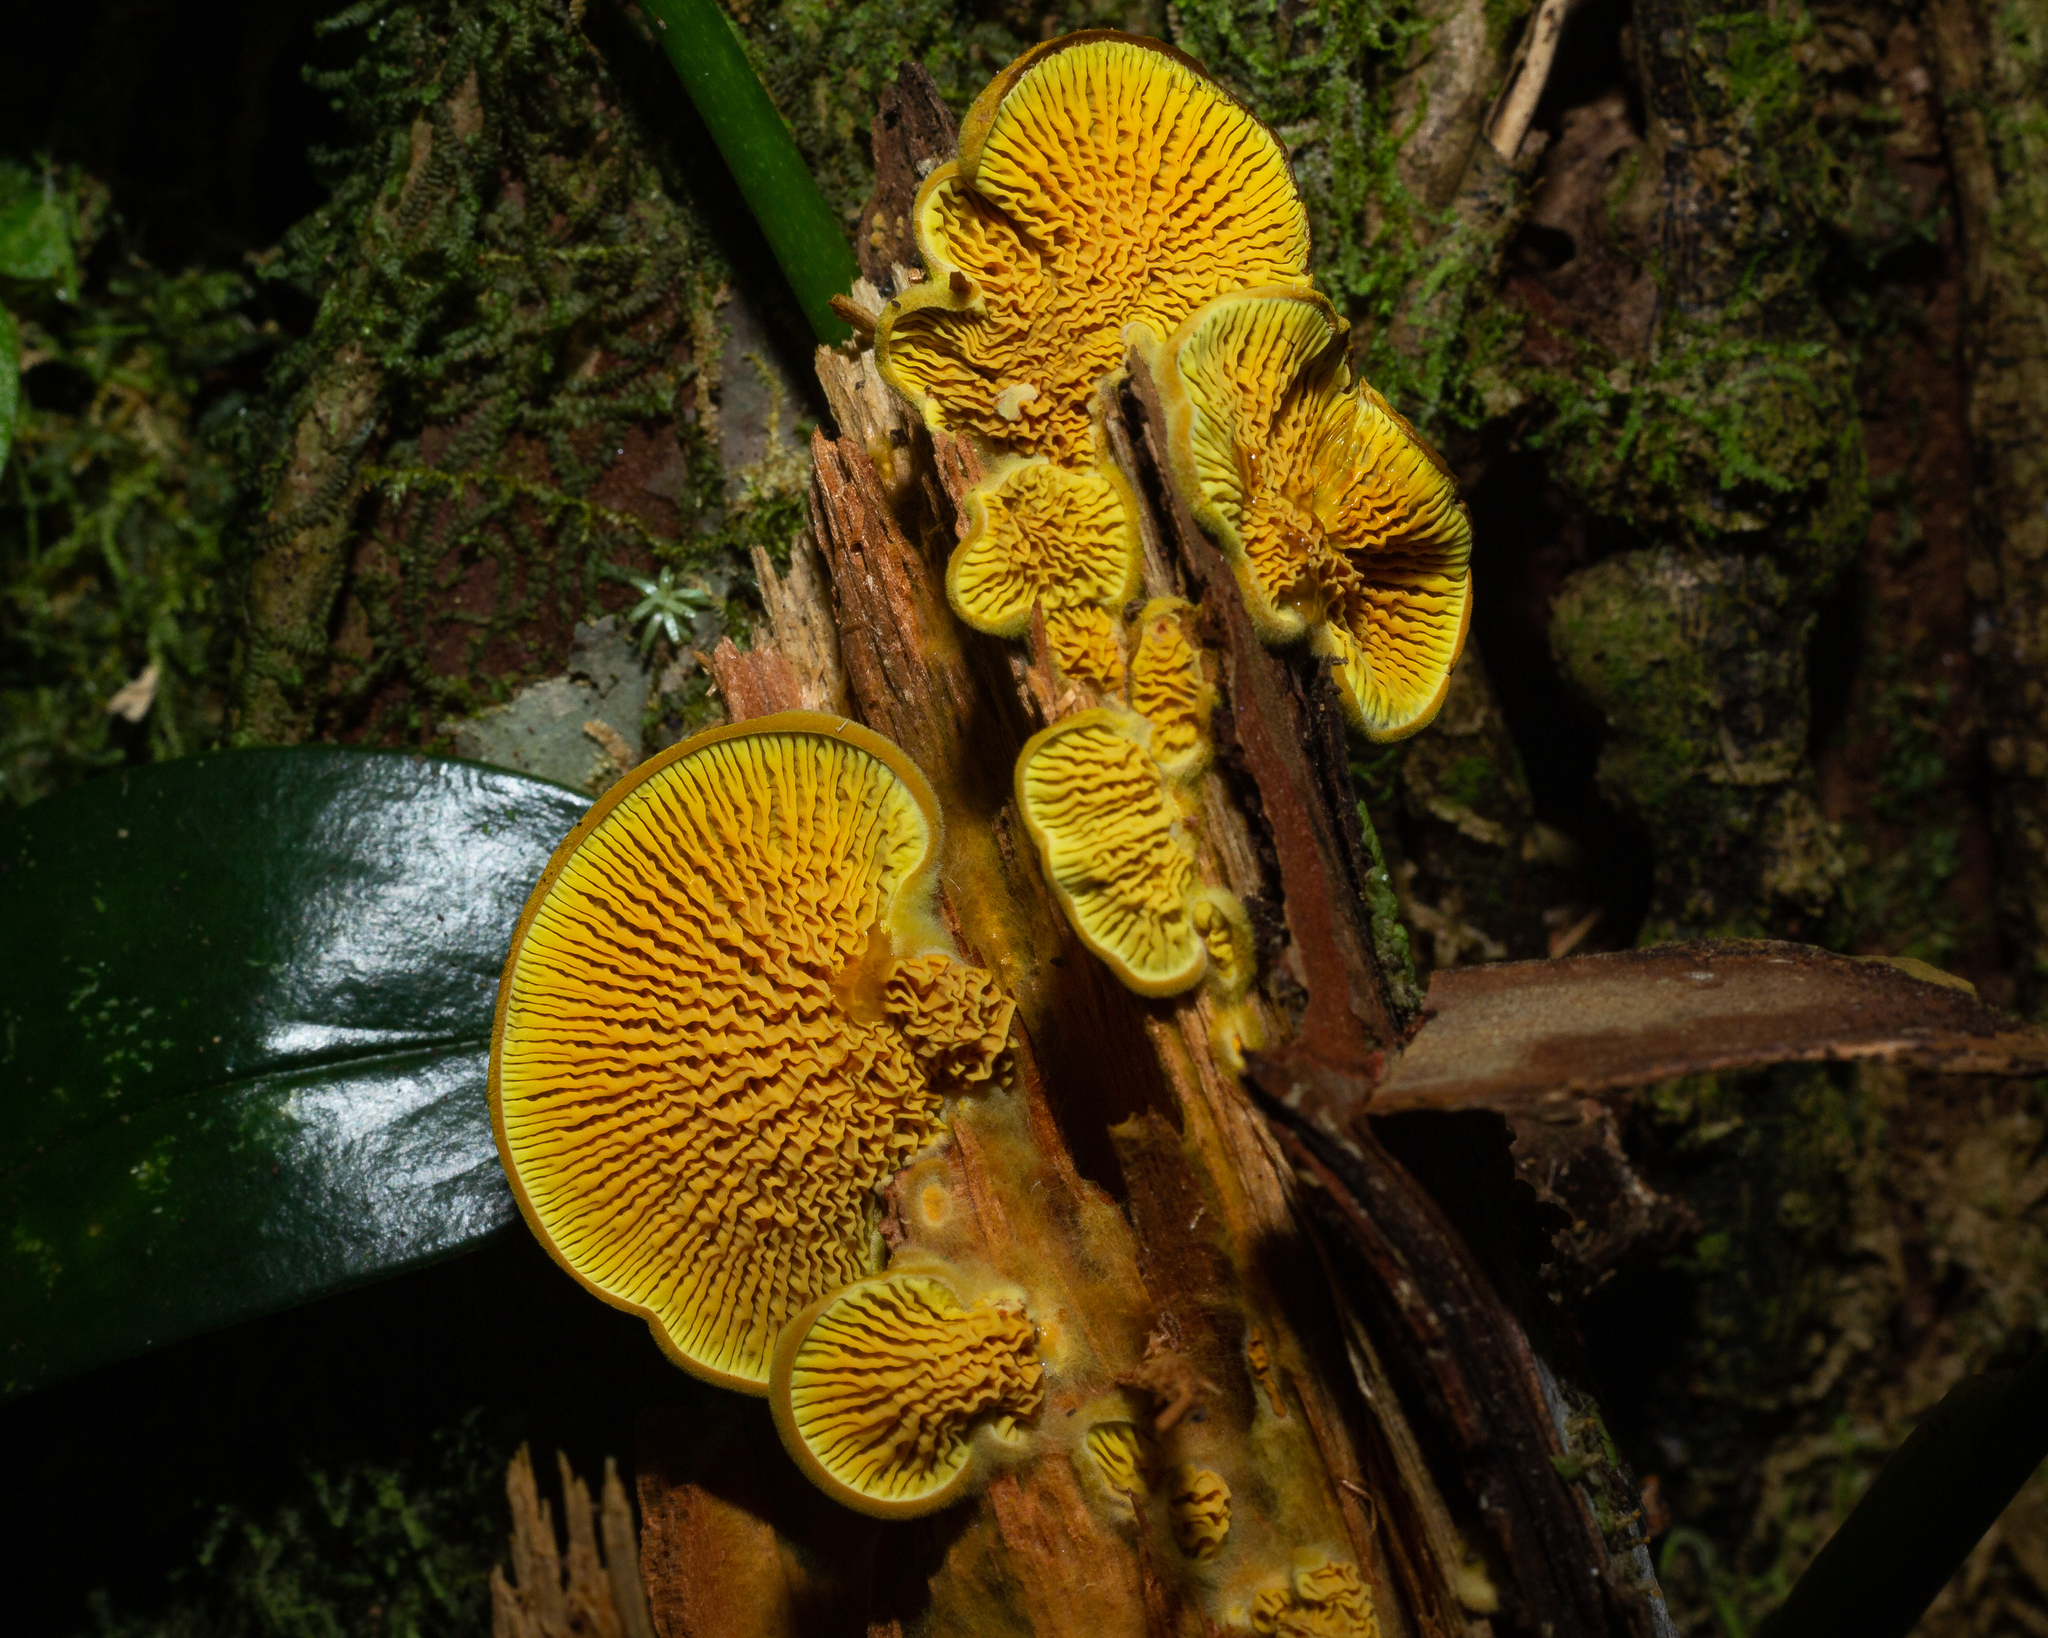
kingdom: Fungi
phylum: Basidiomycota
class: Agaricomycetes
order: Boletales
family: Paxillaceae
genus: Meiorganum
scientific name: Meiorganum curtisii
